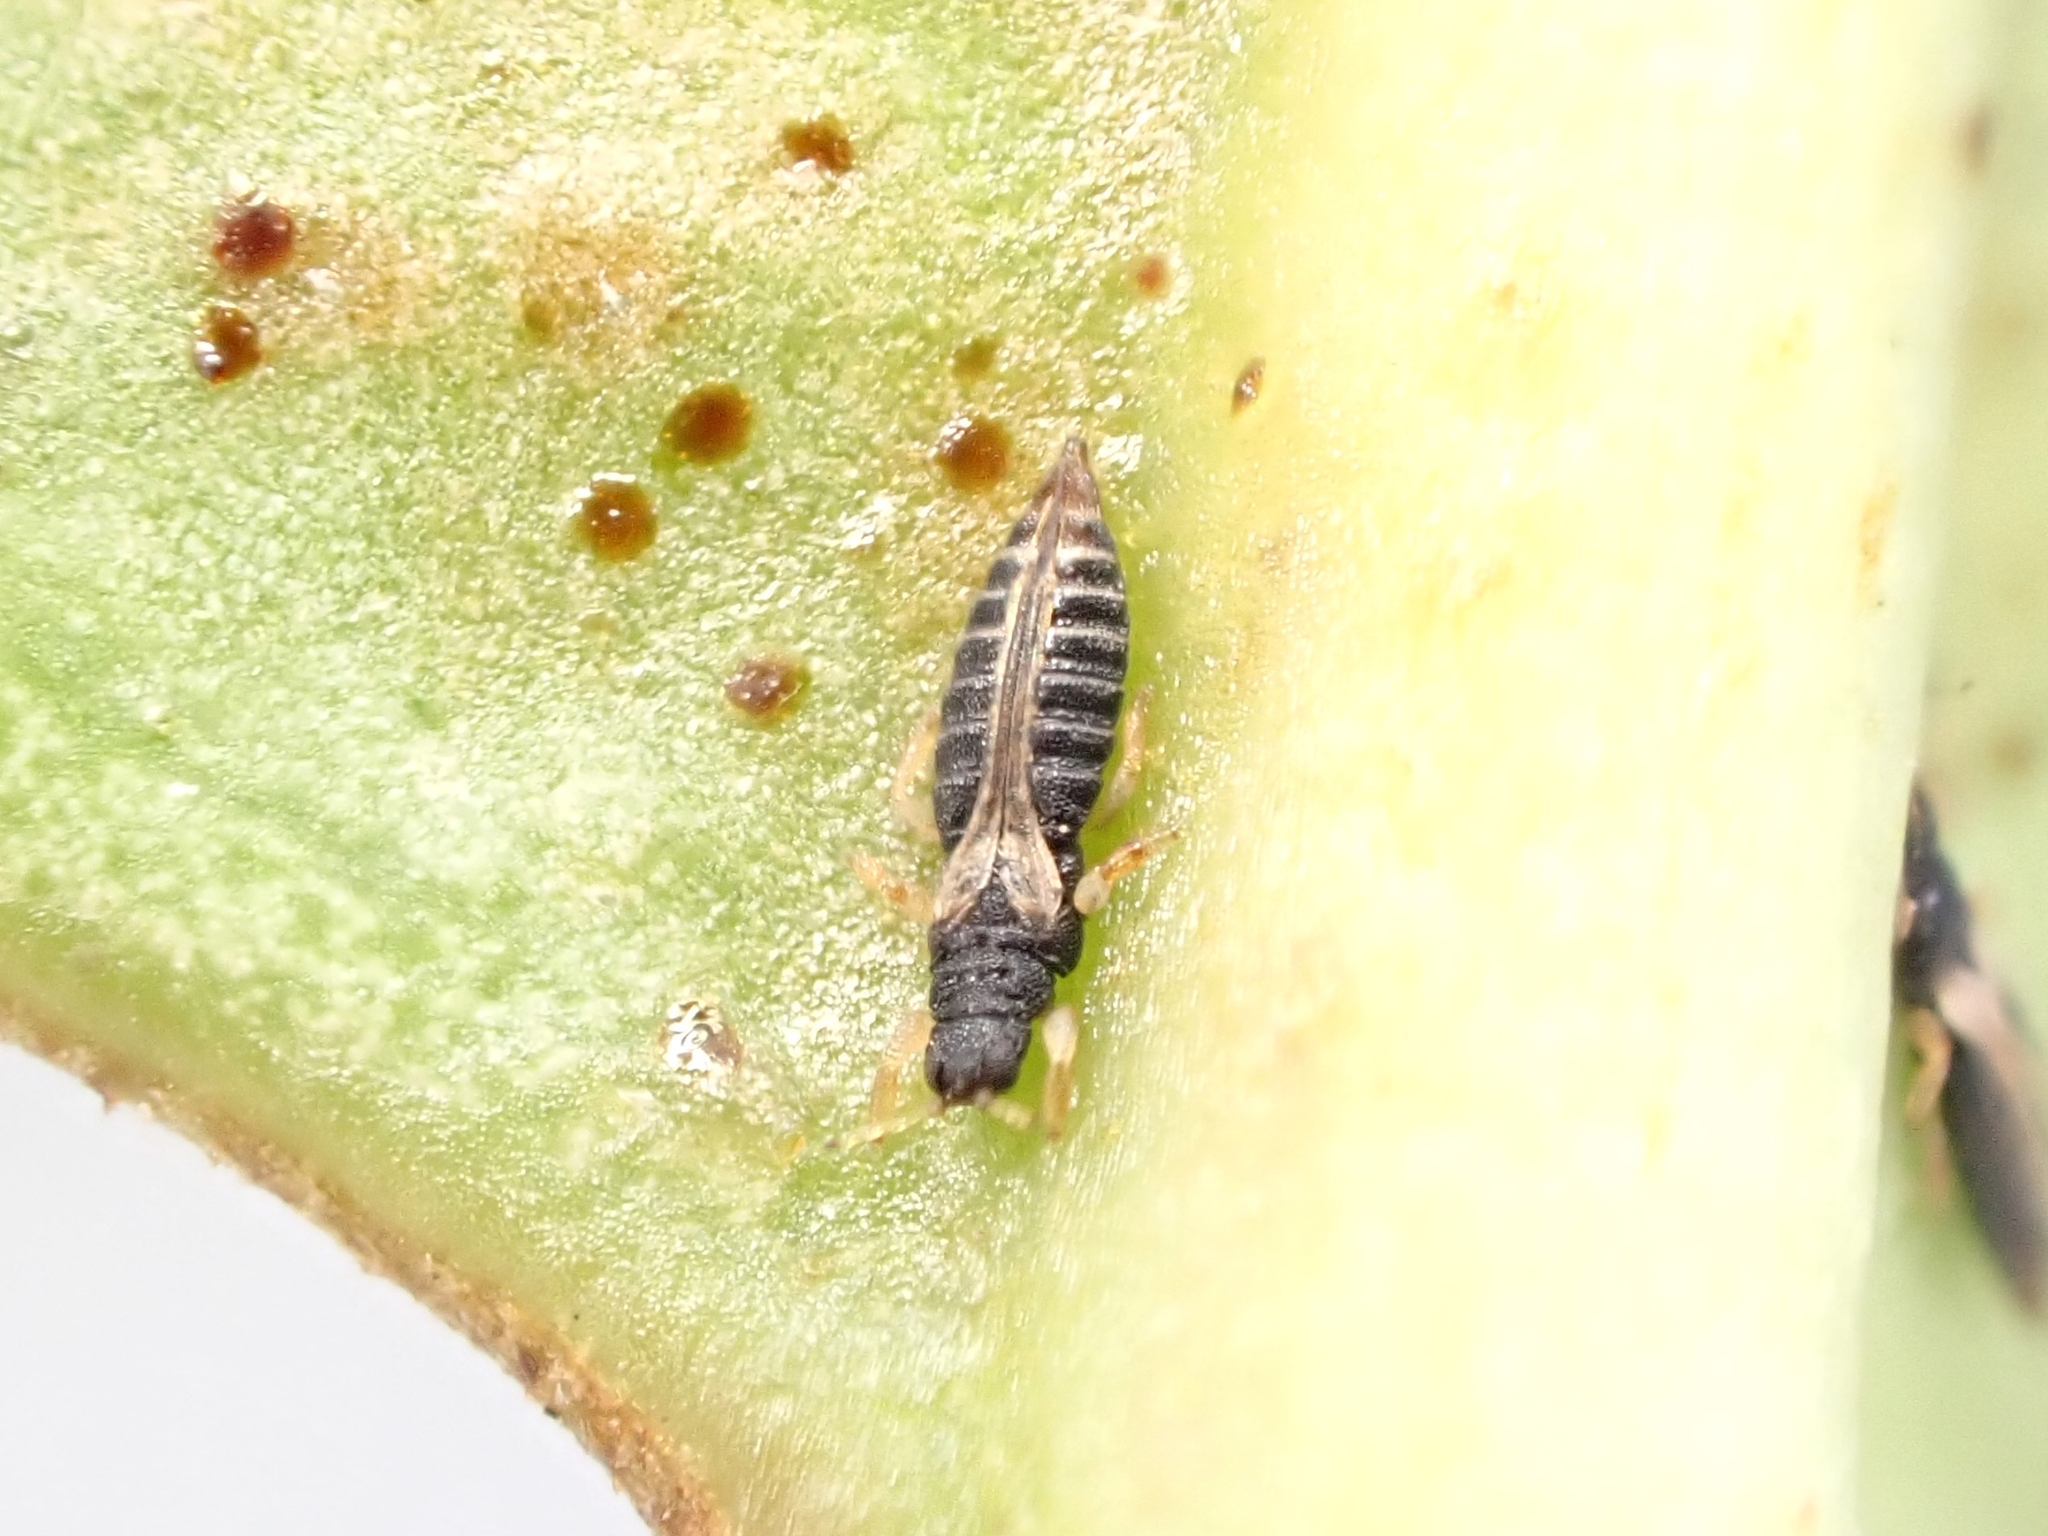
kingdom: Animalia
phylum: Arthropoda
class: Insecta
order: Thysanoptera
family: Thripidae
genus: Heliothrips
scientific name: Heliothrips haemorrhoidalis
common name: Thrips
